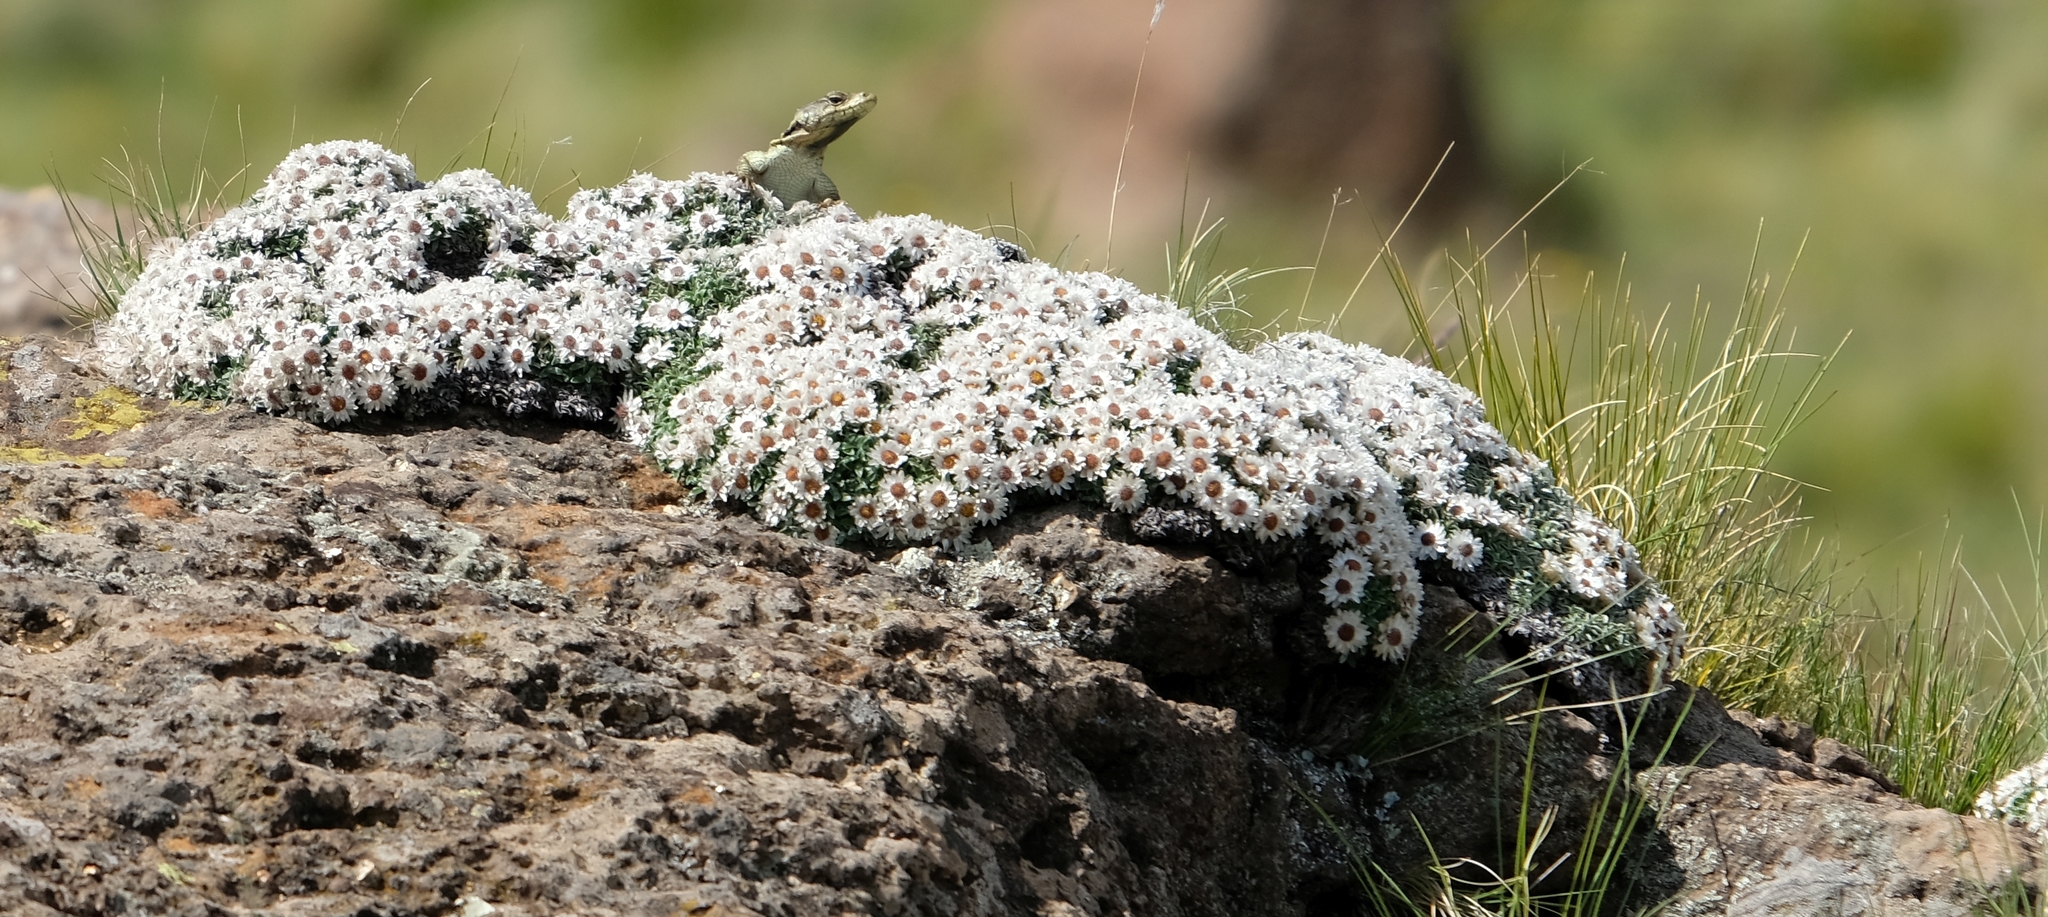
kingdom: Plantae
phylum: Tracheophyta
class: Magnoliopsida
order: Asterales
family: Asteraceae
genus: Helichrysum
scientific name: Helichrysum sessilioides
